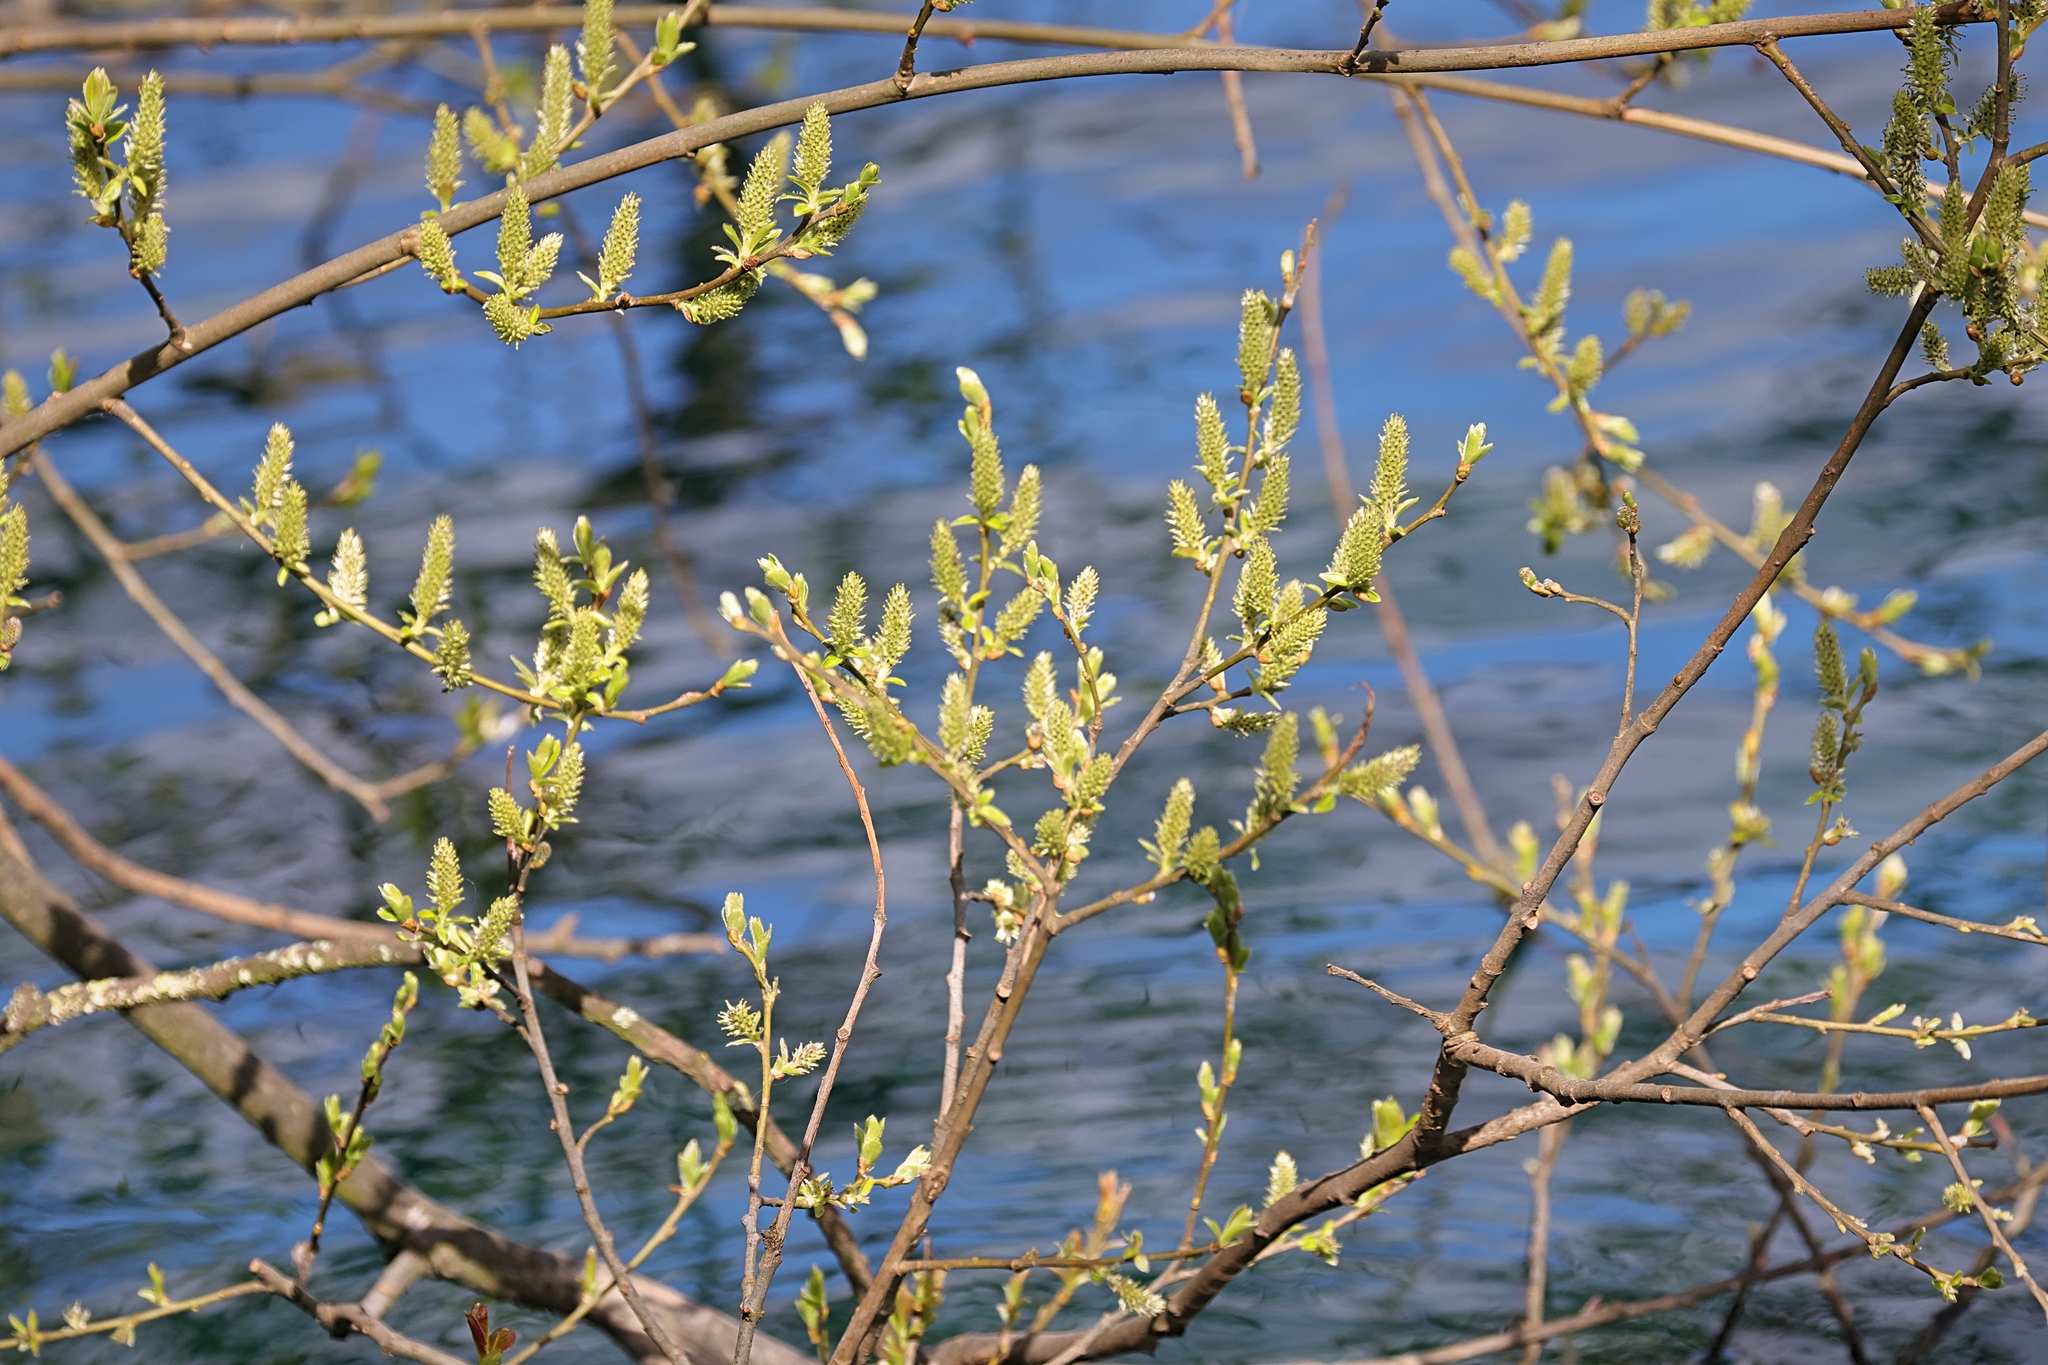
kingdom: Plantae
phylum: Tracheophyta
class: Magnoliopsida
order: Malpighiales
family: Salicaceae
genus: Salix
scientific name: Salix caprea
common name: Goat willow
